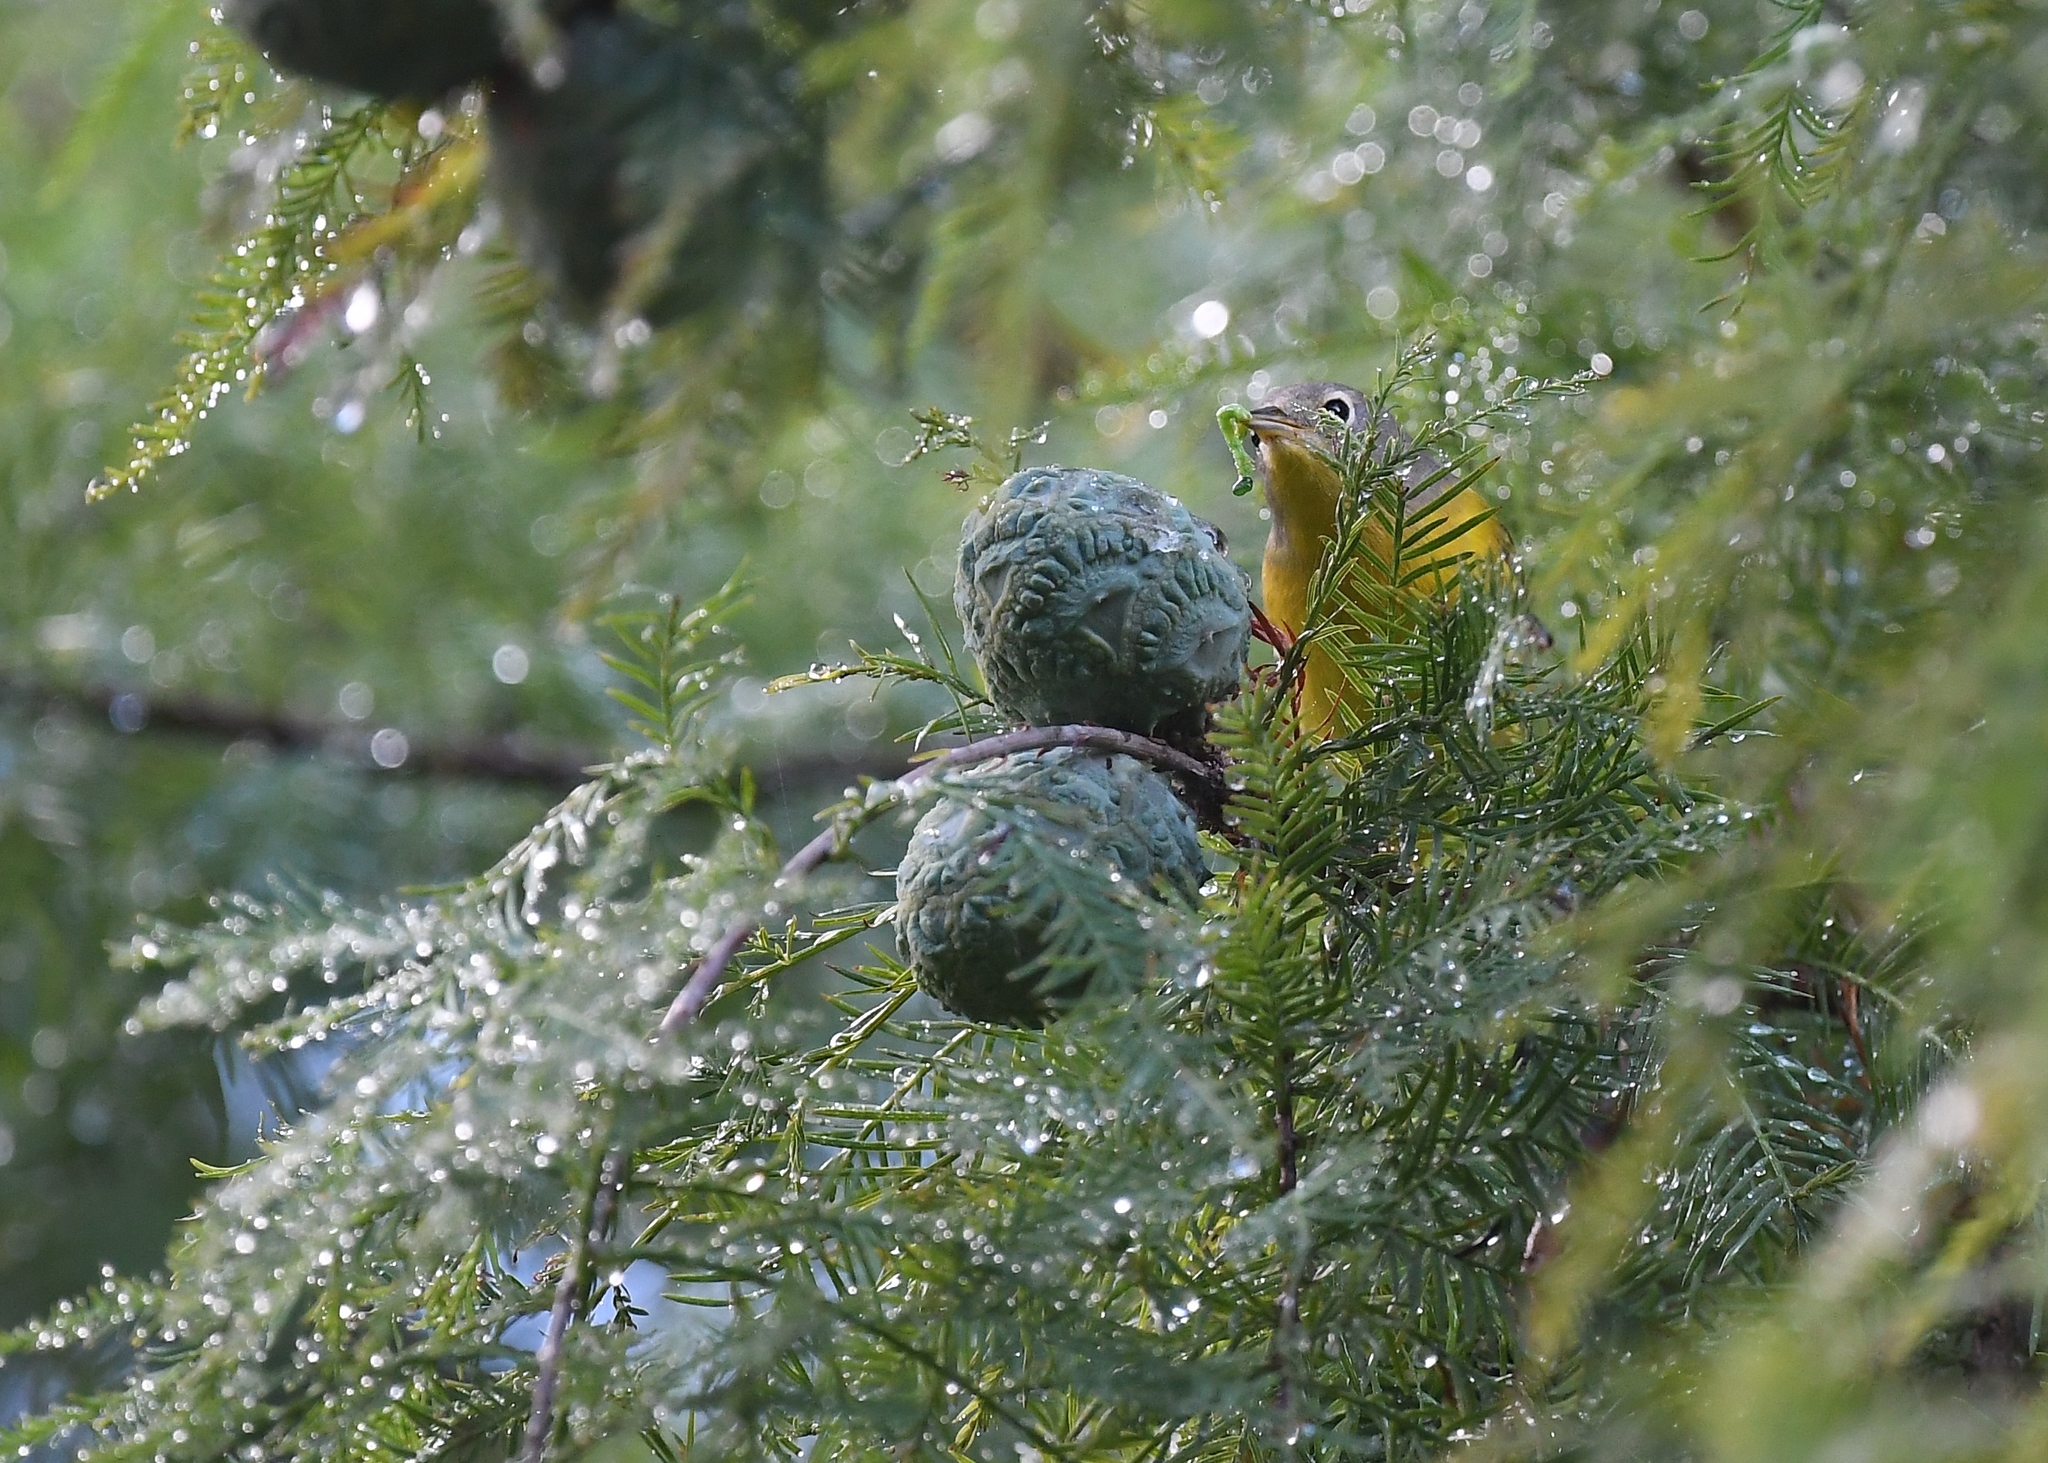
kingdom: Animalia
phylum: Chordata
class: Aves
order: Passeriformes
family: Parulidae
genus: Leiothlypis
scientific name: Leiothlypis ruficapilla
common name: Nashville warbler
